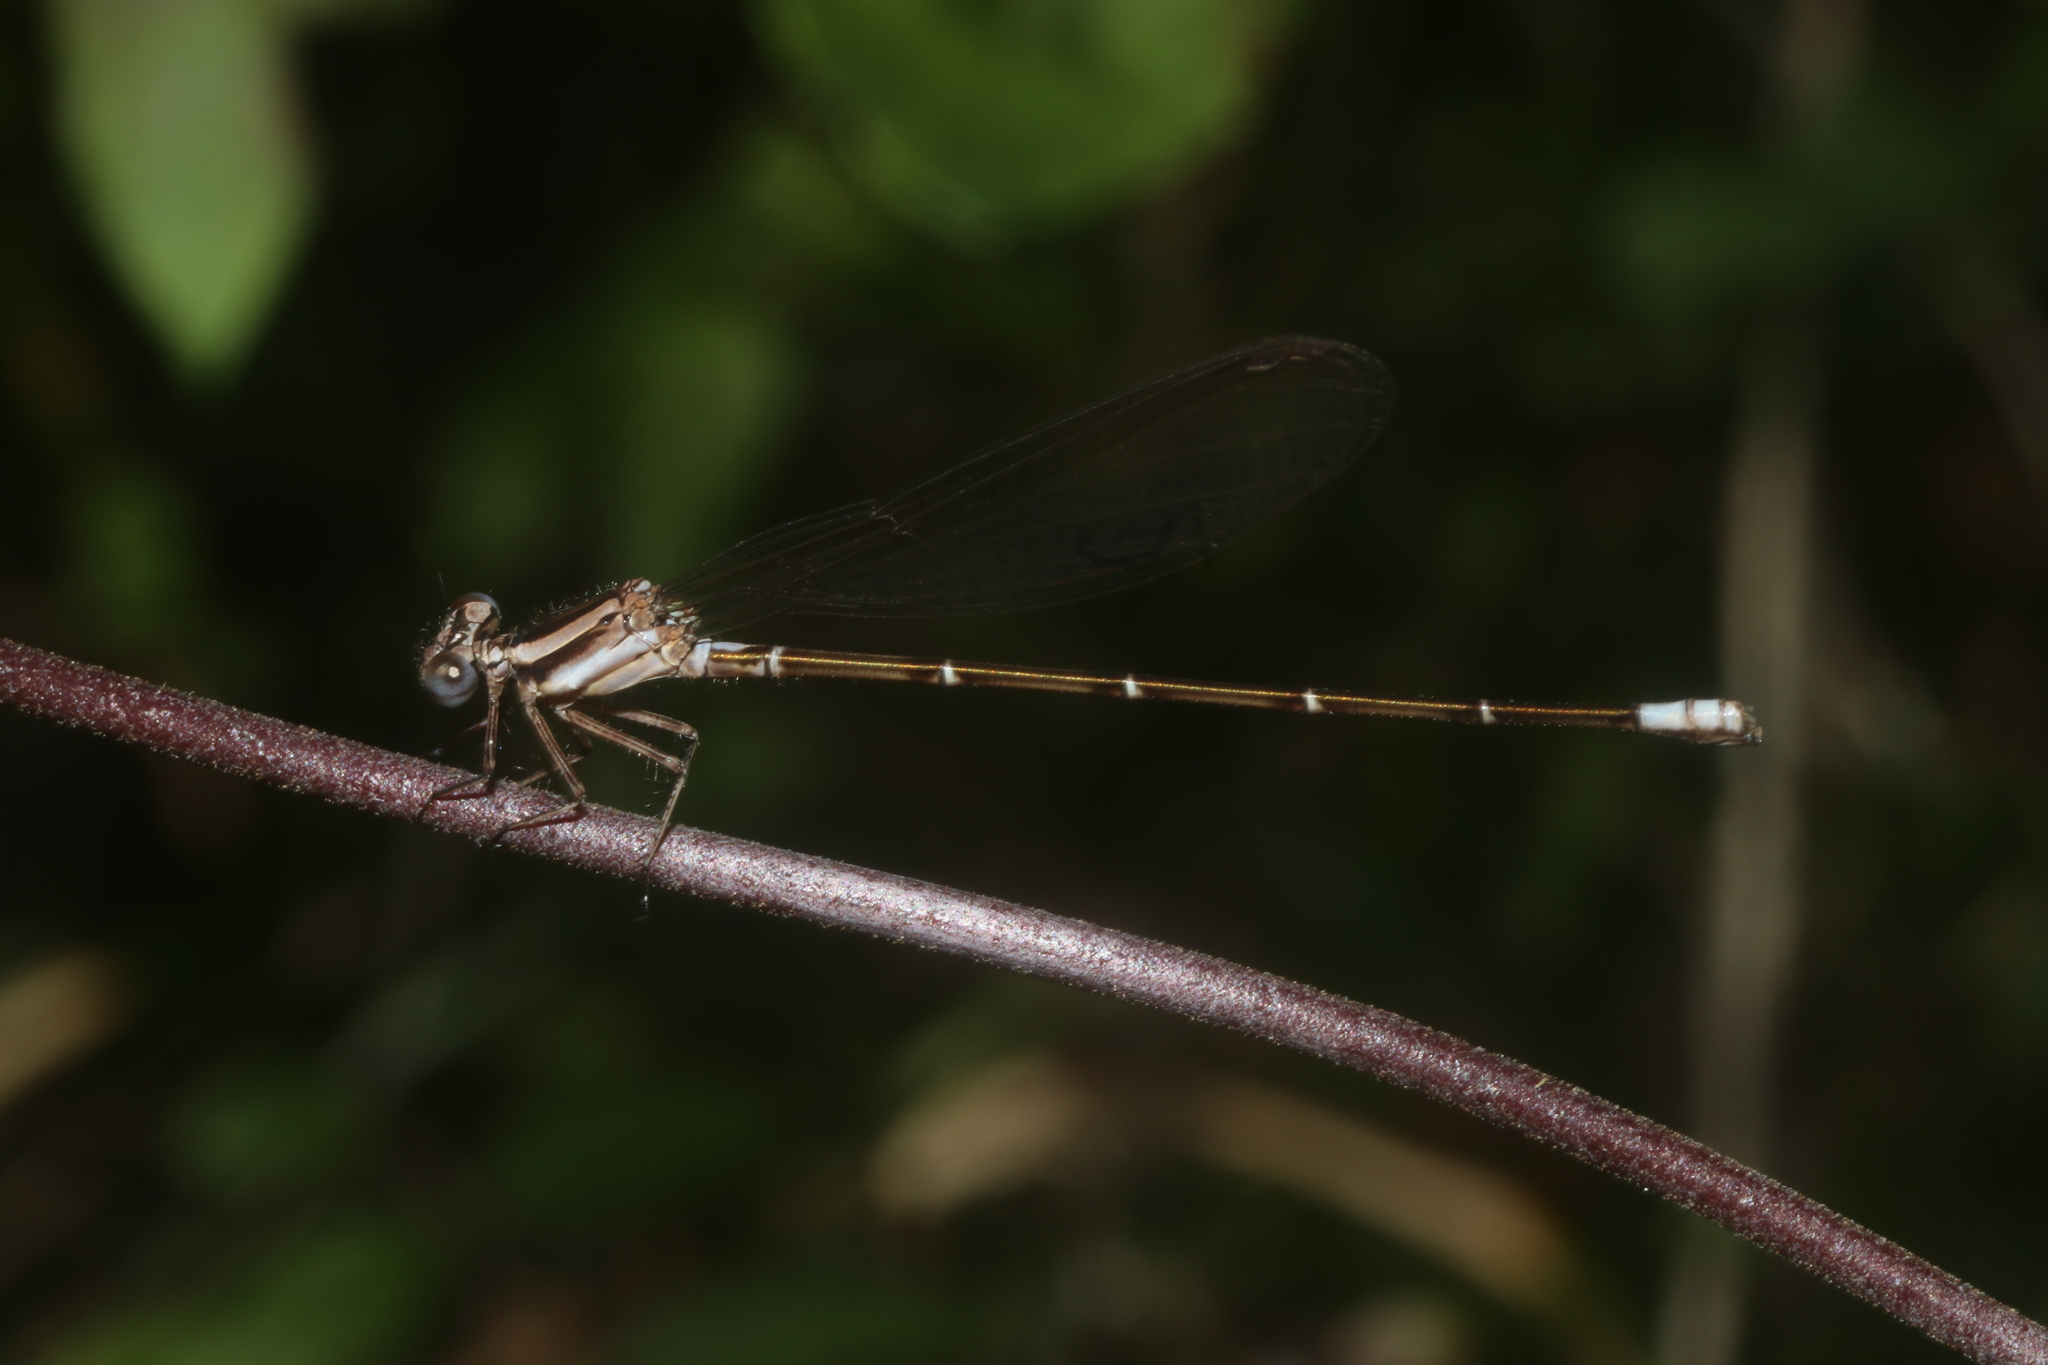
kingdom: Animalia
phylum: Arthropoda
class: Insecta
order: Odonata
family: Coenagrionidae
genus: Argia
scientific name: Argia gaumeri
